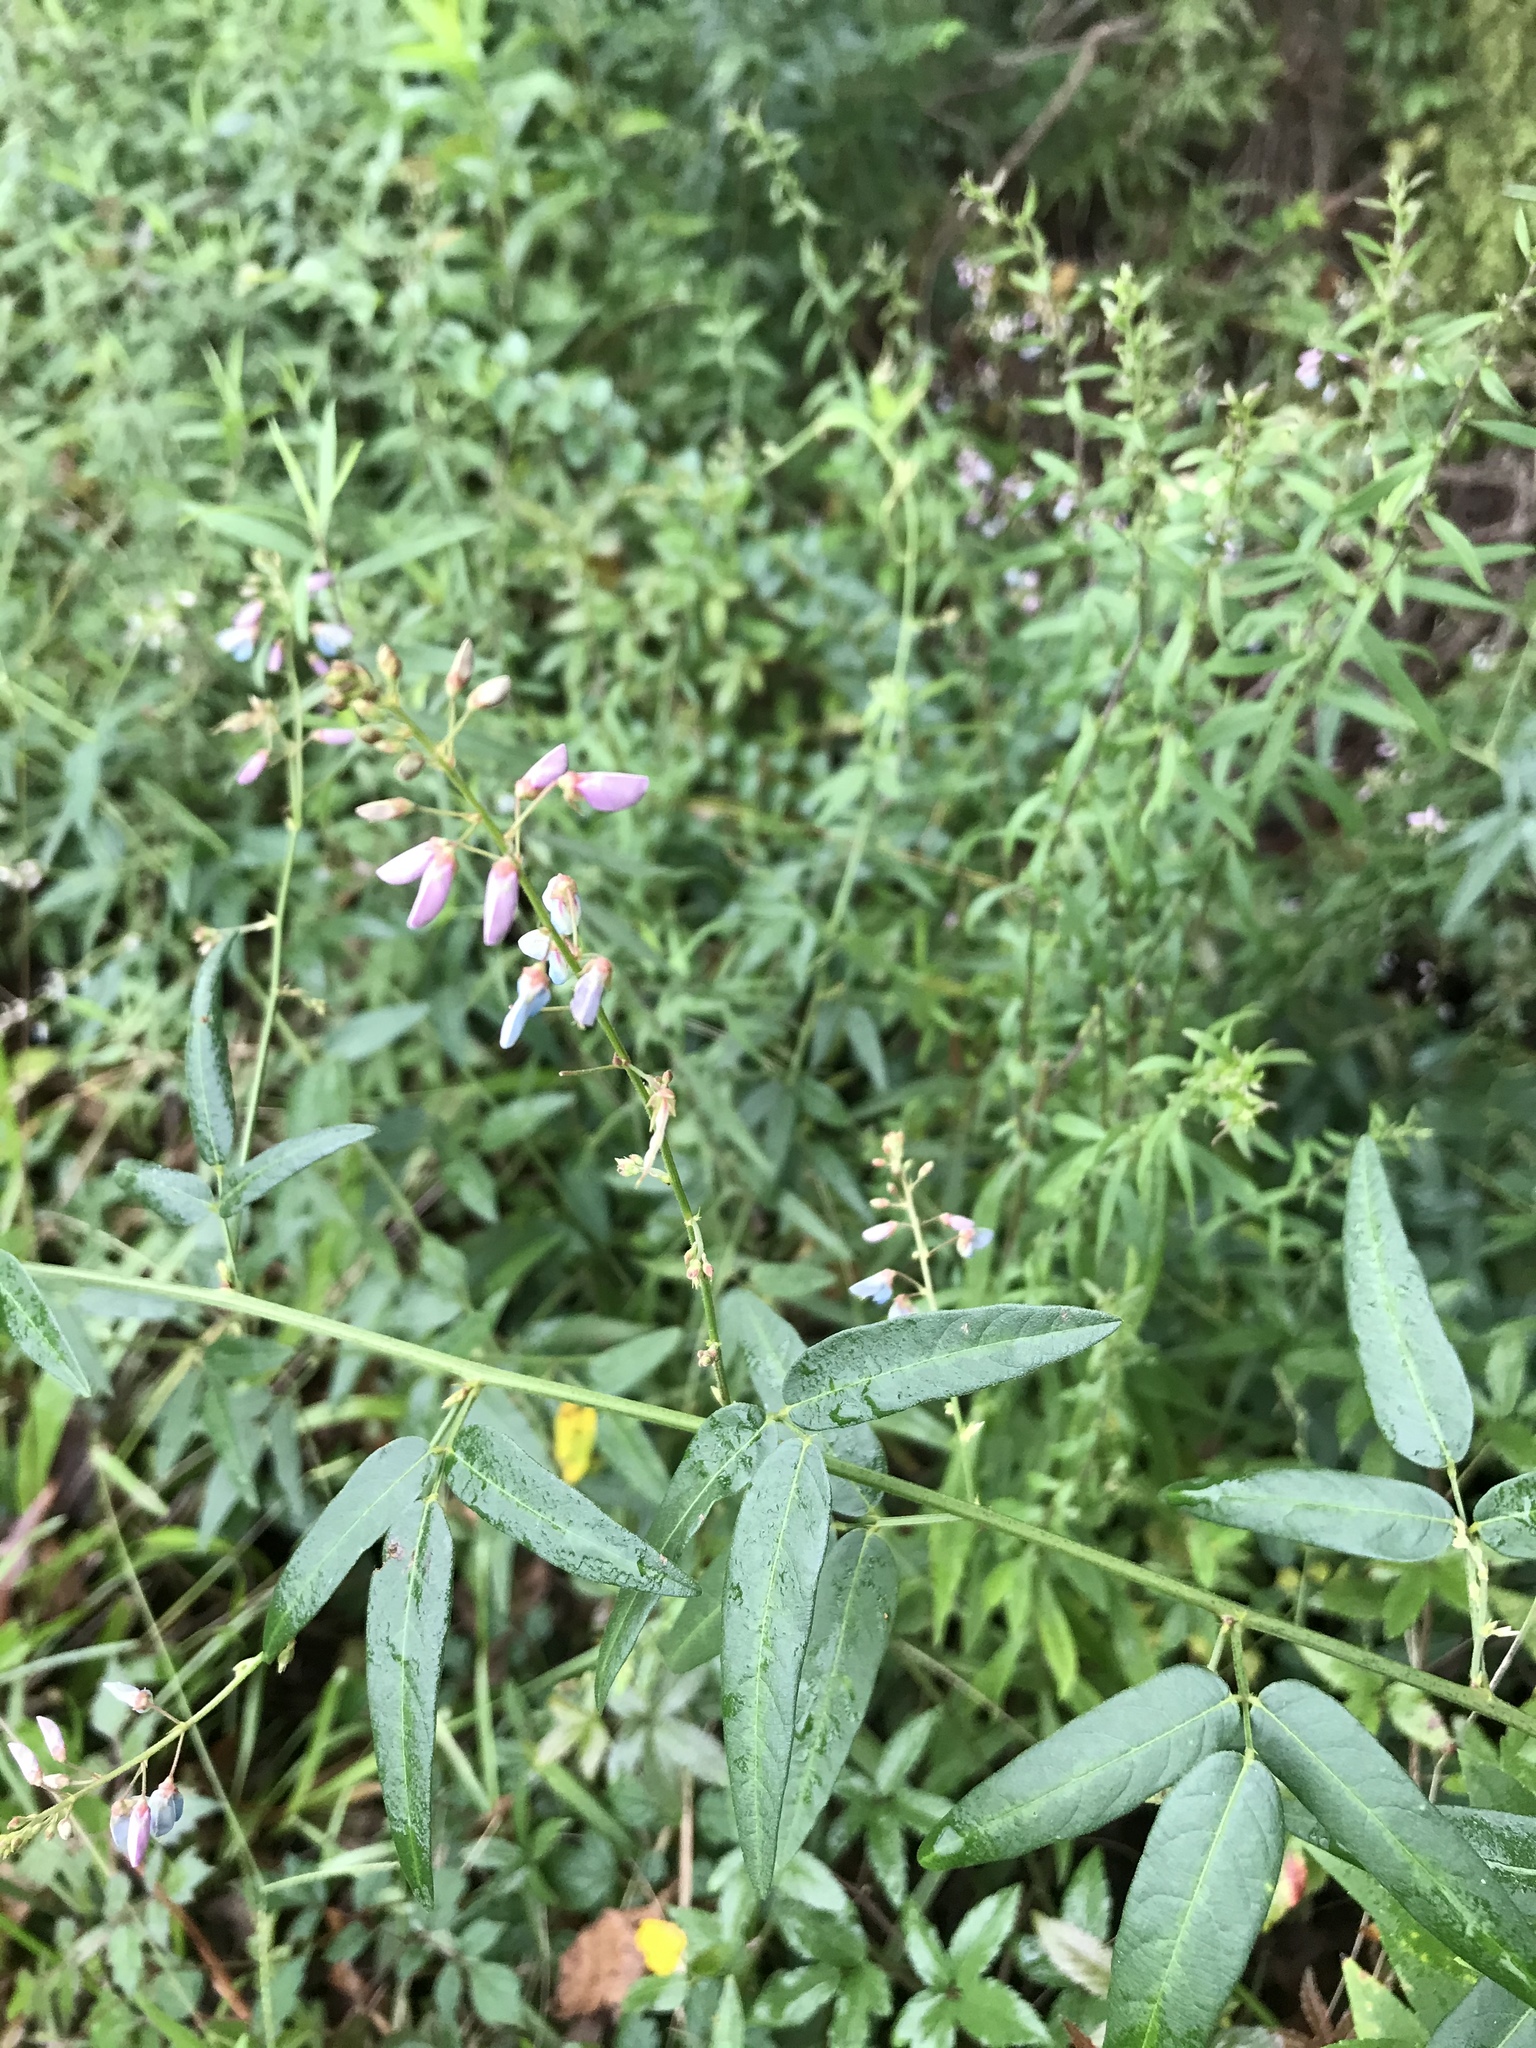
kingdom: Plantae
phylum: Tracheophyta
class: Magnoliopsida
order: Fabales
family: Fabaceae
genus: Desmodium
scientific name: Desmodium paniculatum
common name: Panicled tick-clover
